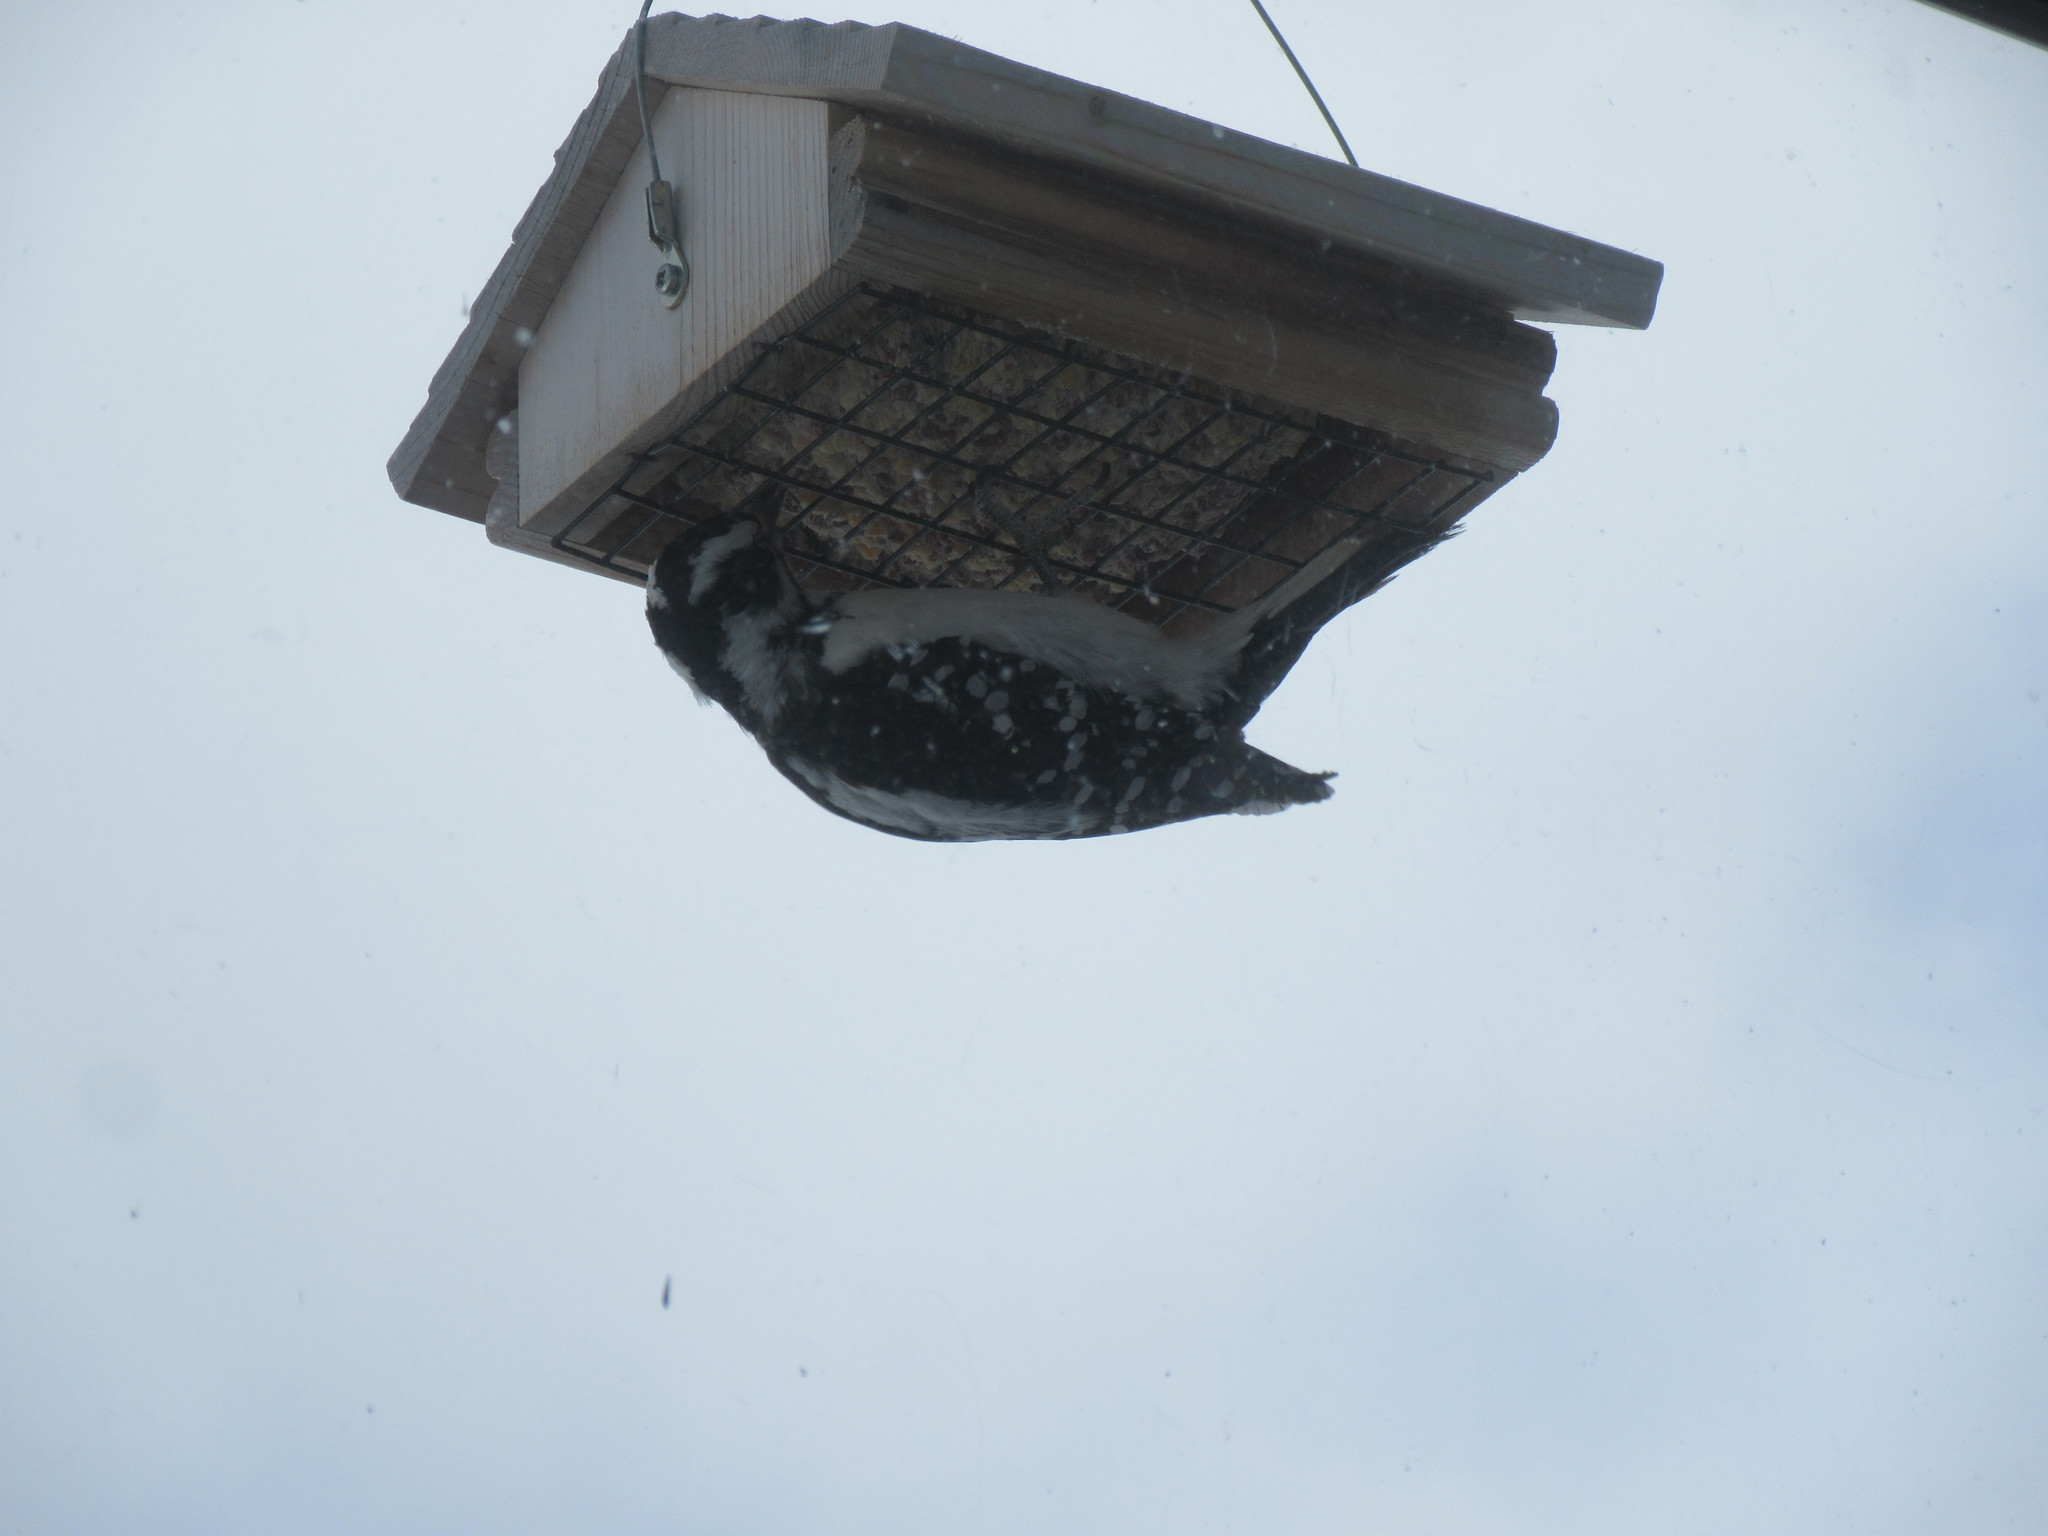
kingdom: Animalia
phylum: Chordata
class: Aves
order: Piciformes
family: Picidae
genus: Leuconotopicus
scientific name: Leuconotopicus villosus
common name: Hairy woodpecker
